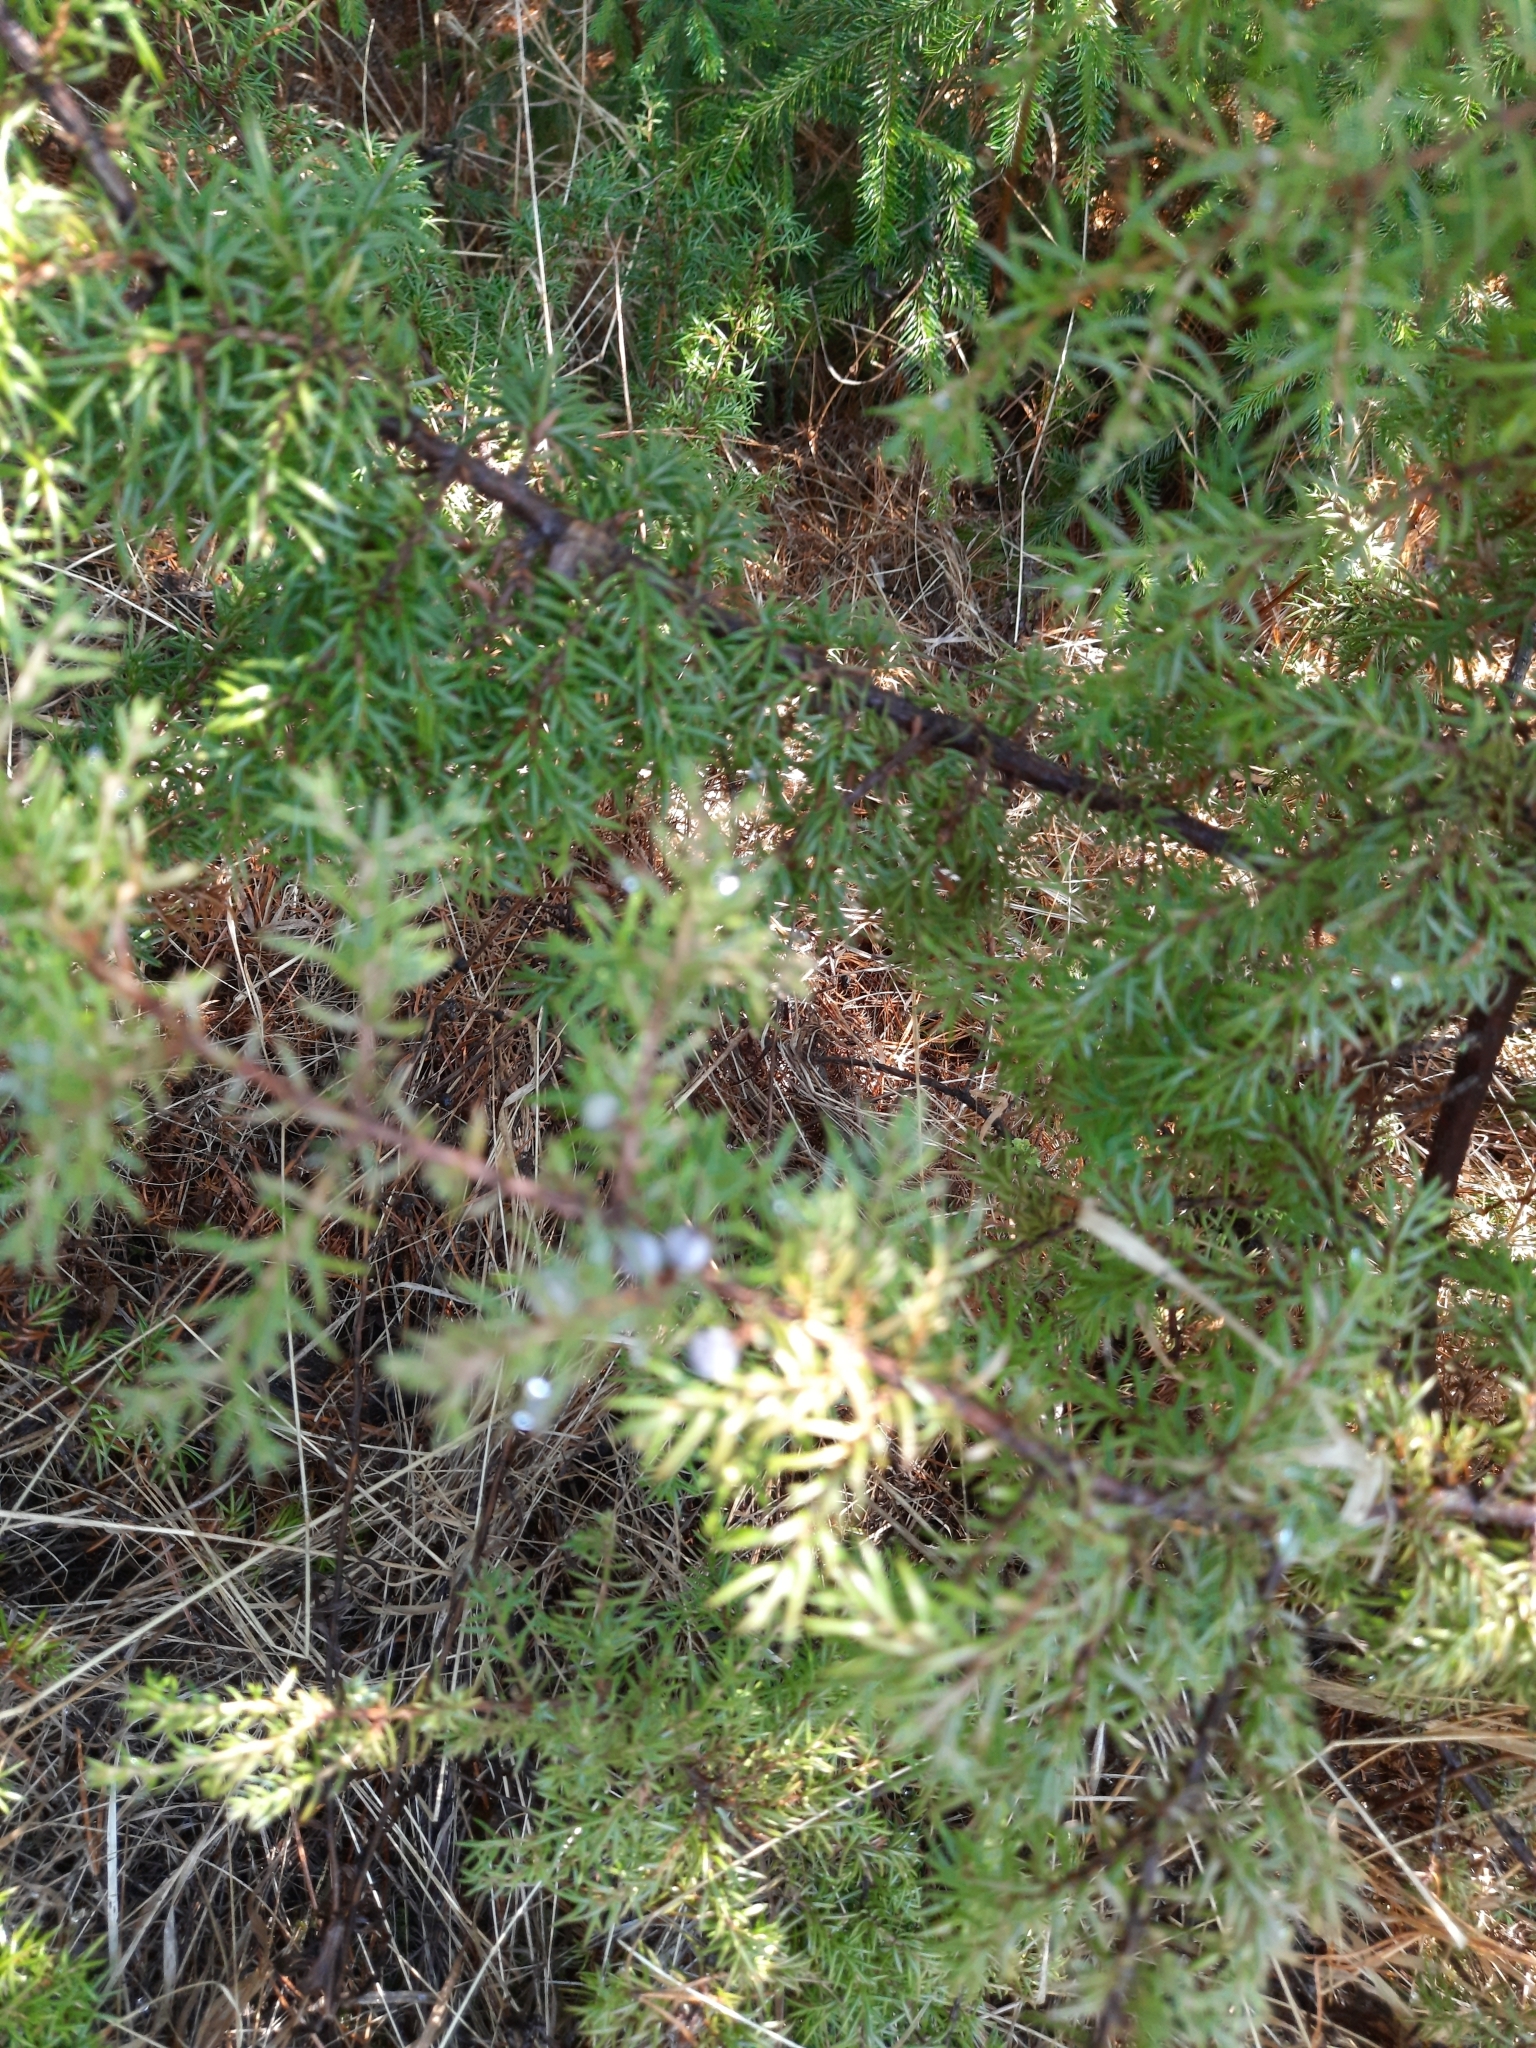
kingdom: Plantae
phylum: Tracheophyta
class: Pinopsida
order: Pinales
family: Cupressaceae
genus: Juniperus
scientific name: Juniperus communis
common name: Common juniper
